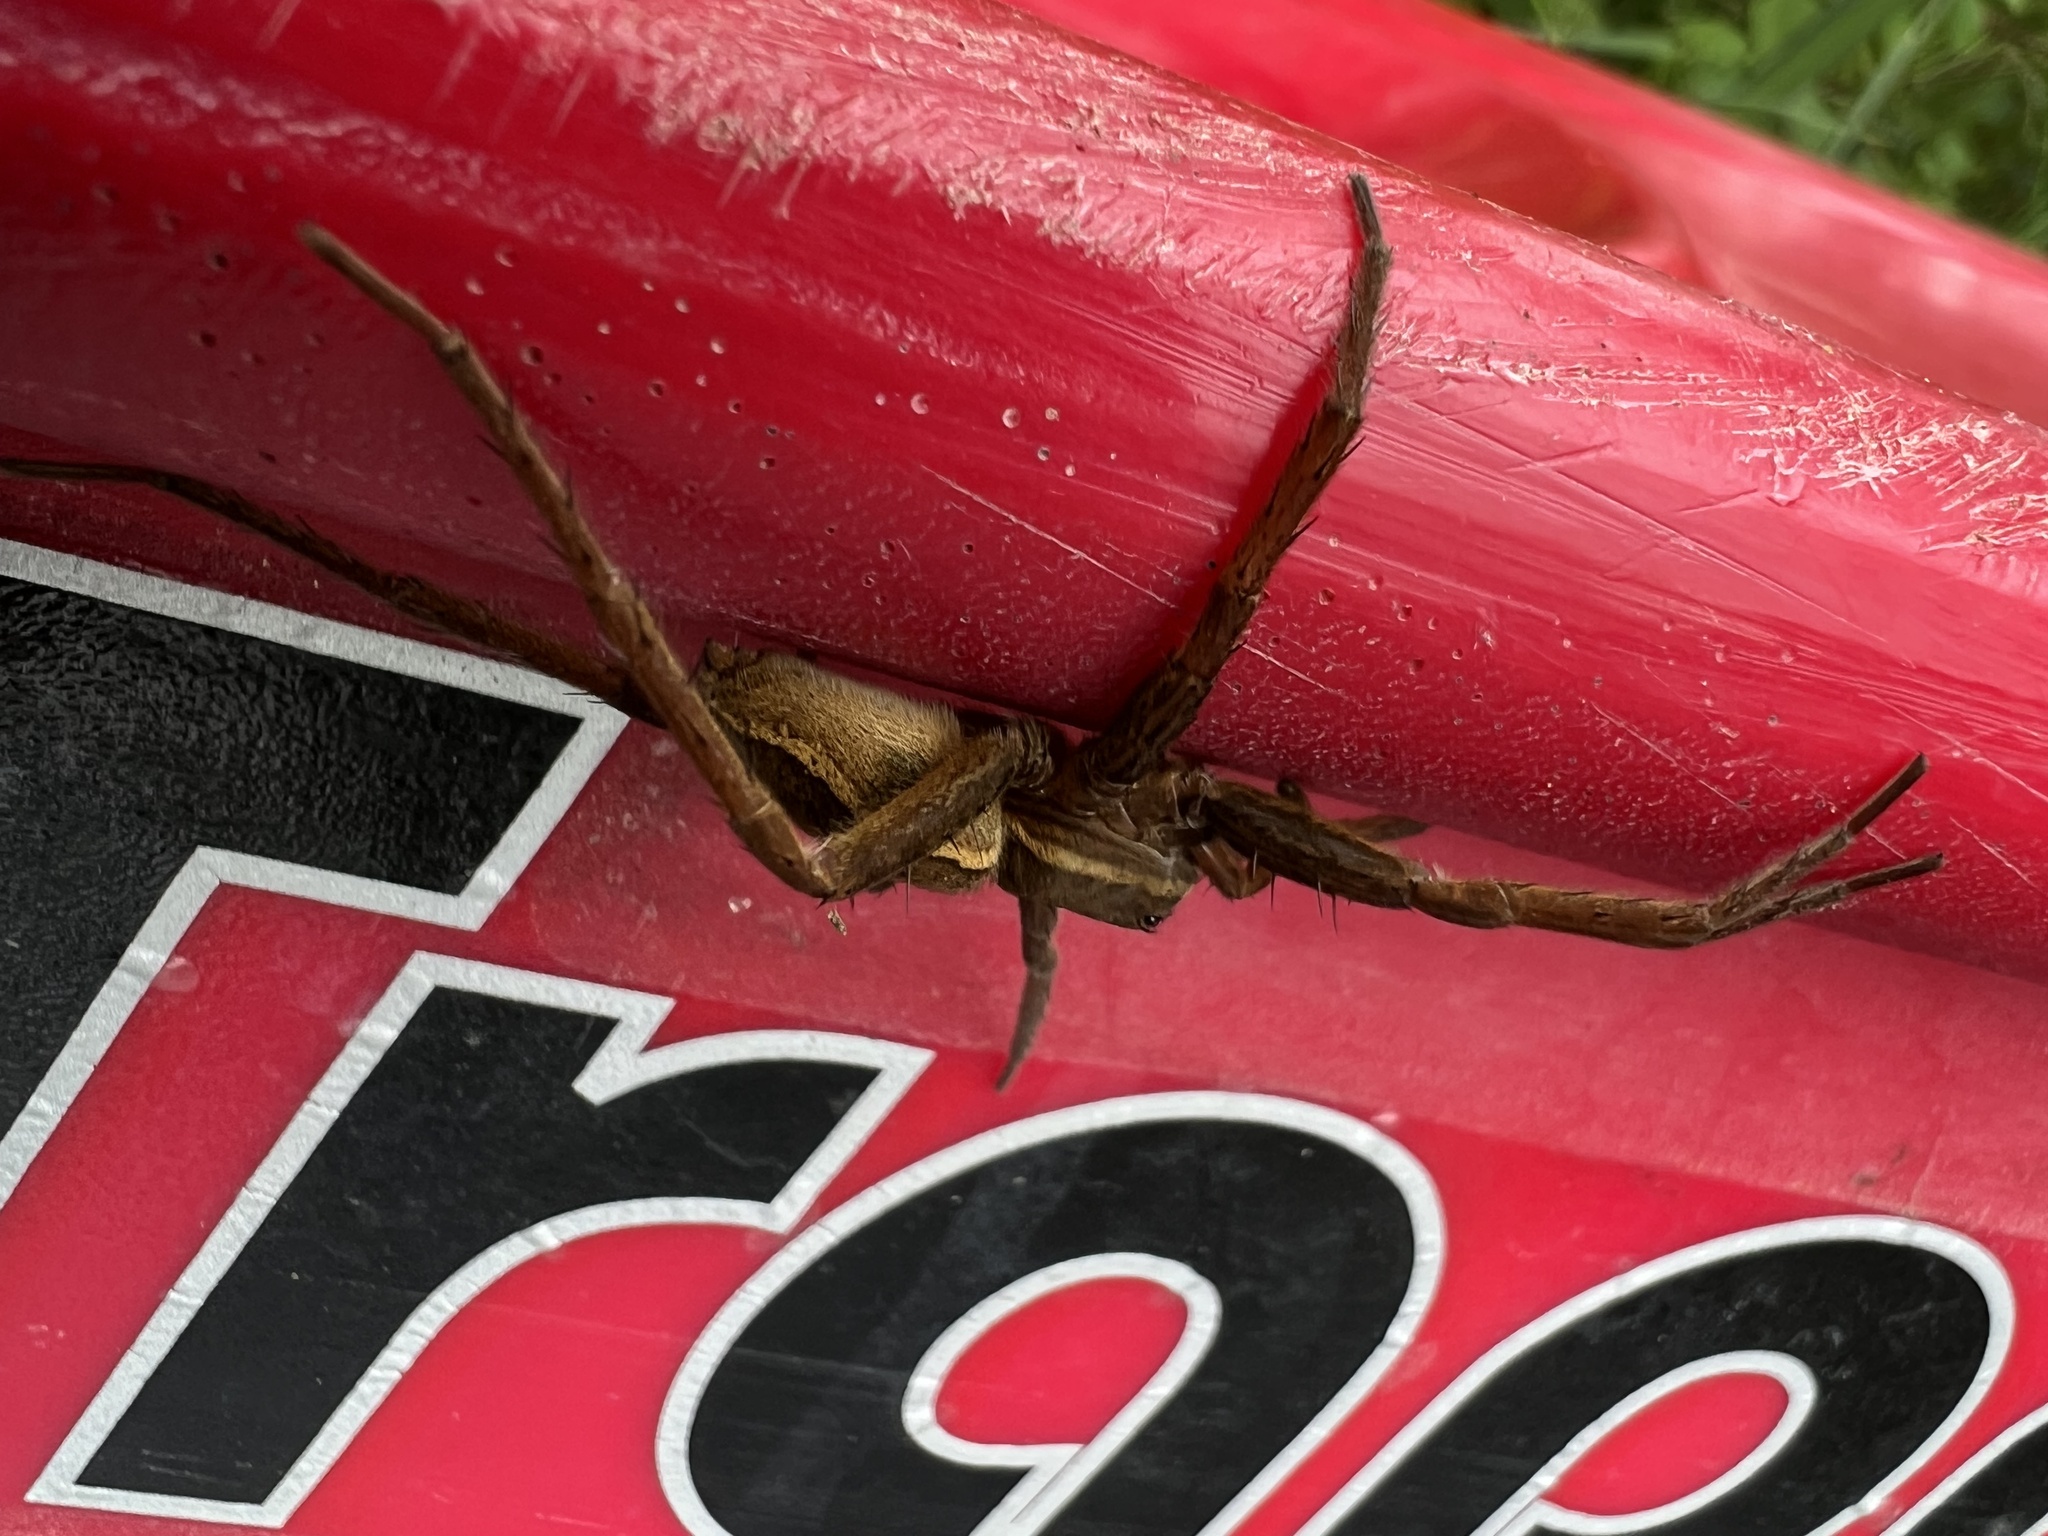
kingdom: Animalia
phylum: Arthropoda
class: Arachnida
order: Araneae
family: Pisauridae
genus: Dolomedes
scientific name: Dolomedes
